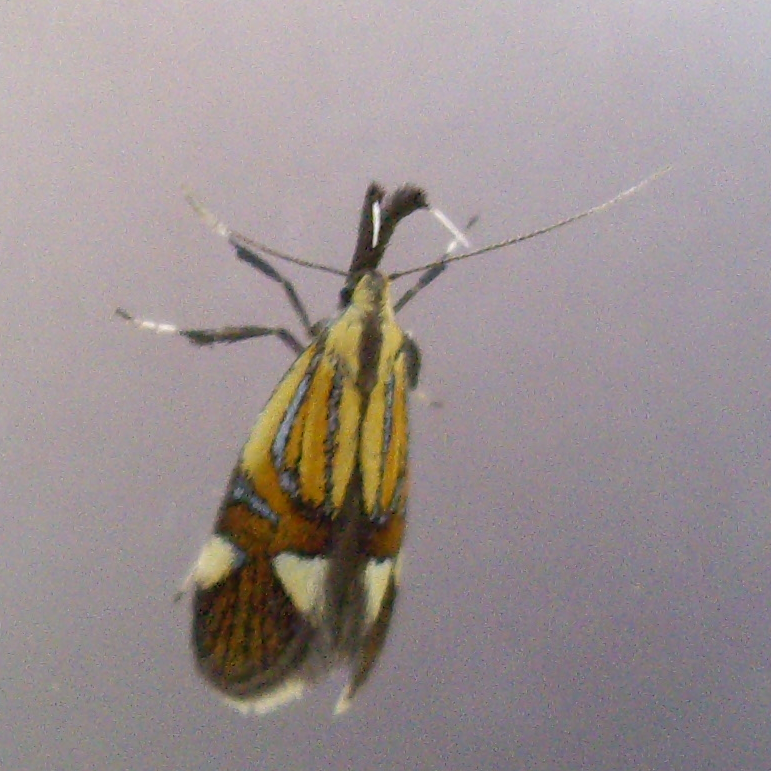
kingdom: Animalia
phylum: Arthropoda
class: Insecta
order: Lepidoptera
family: Oecophoridae
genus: Oecophora
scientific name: Oecophora Alabonia geoffrella
